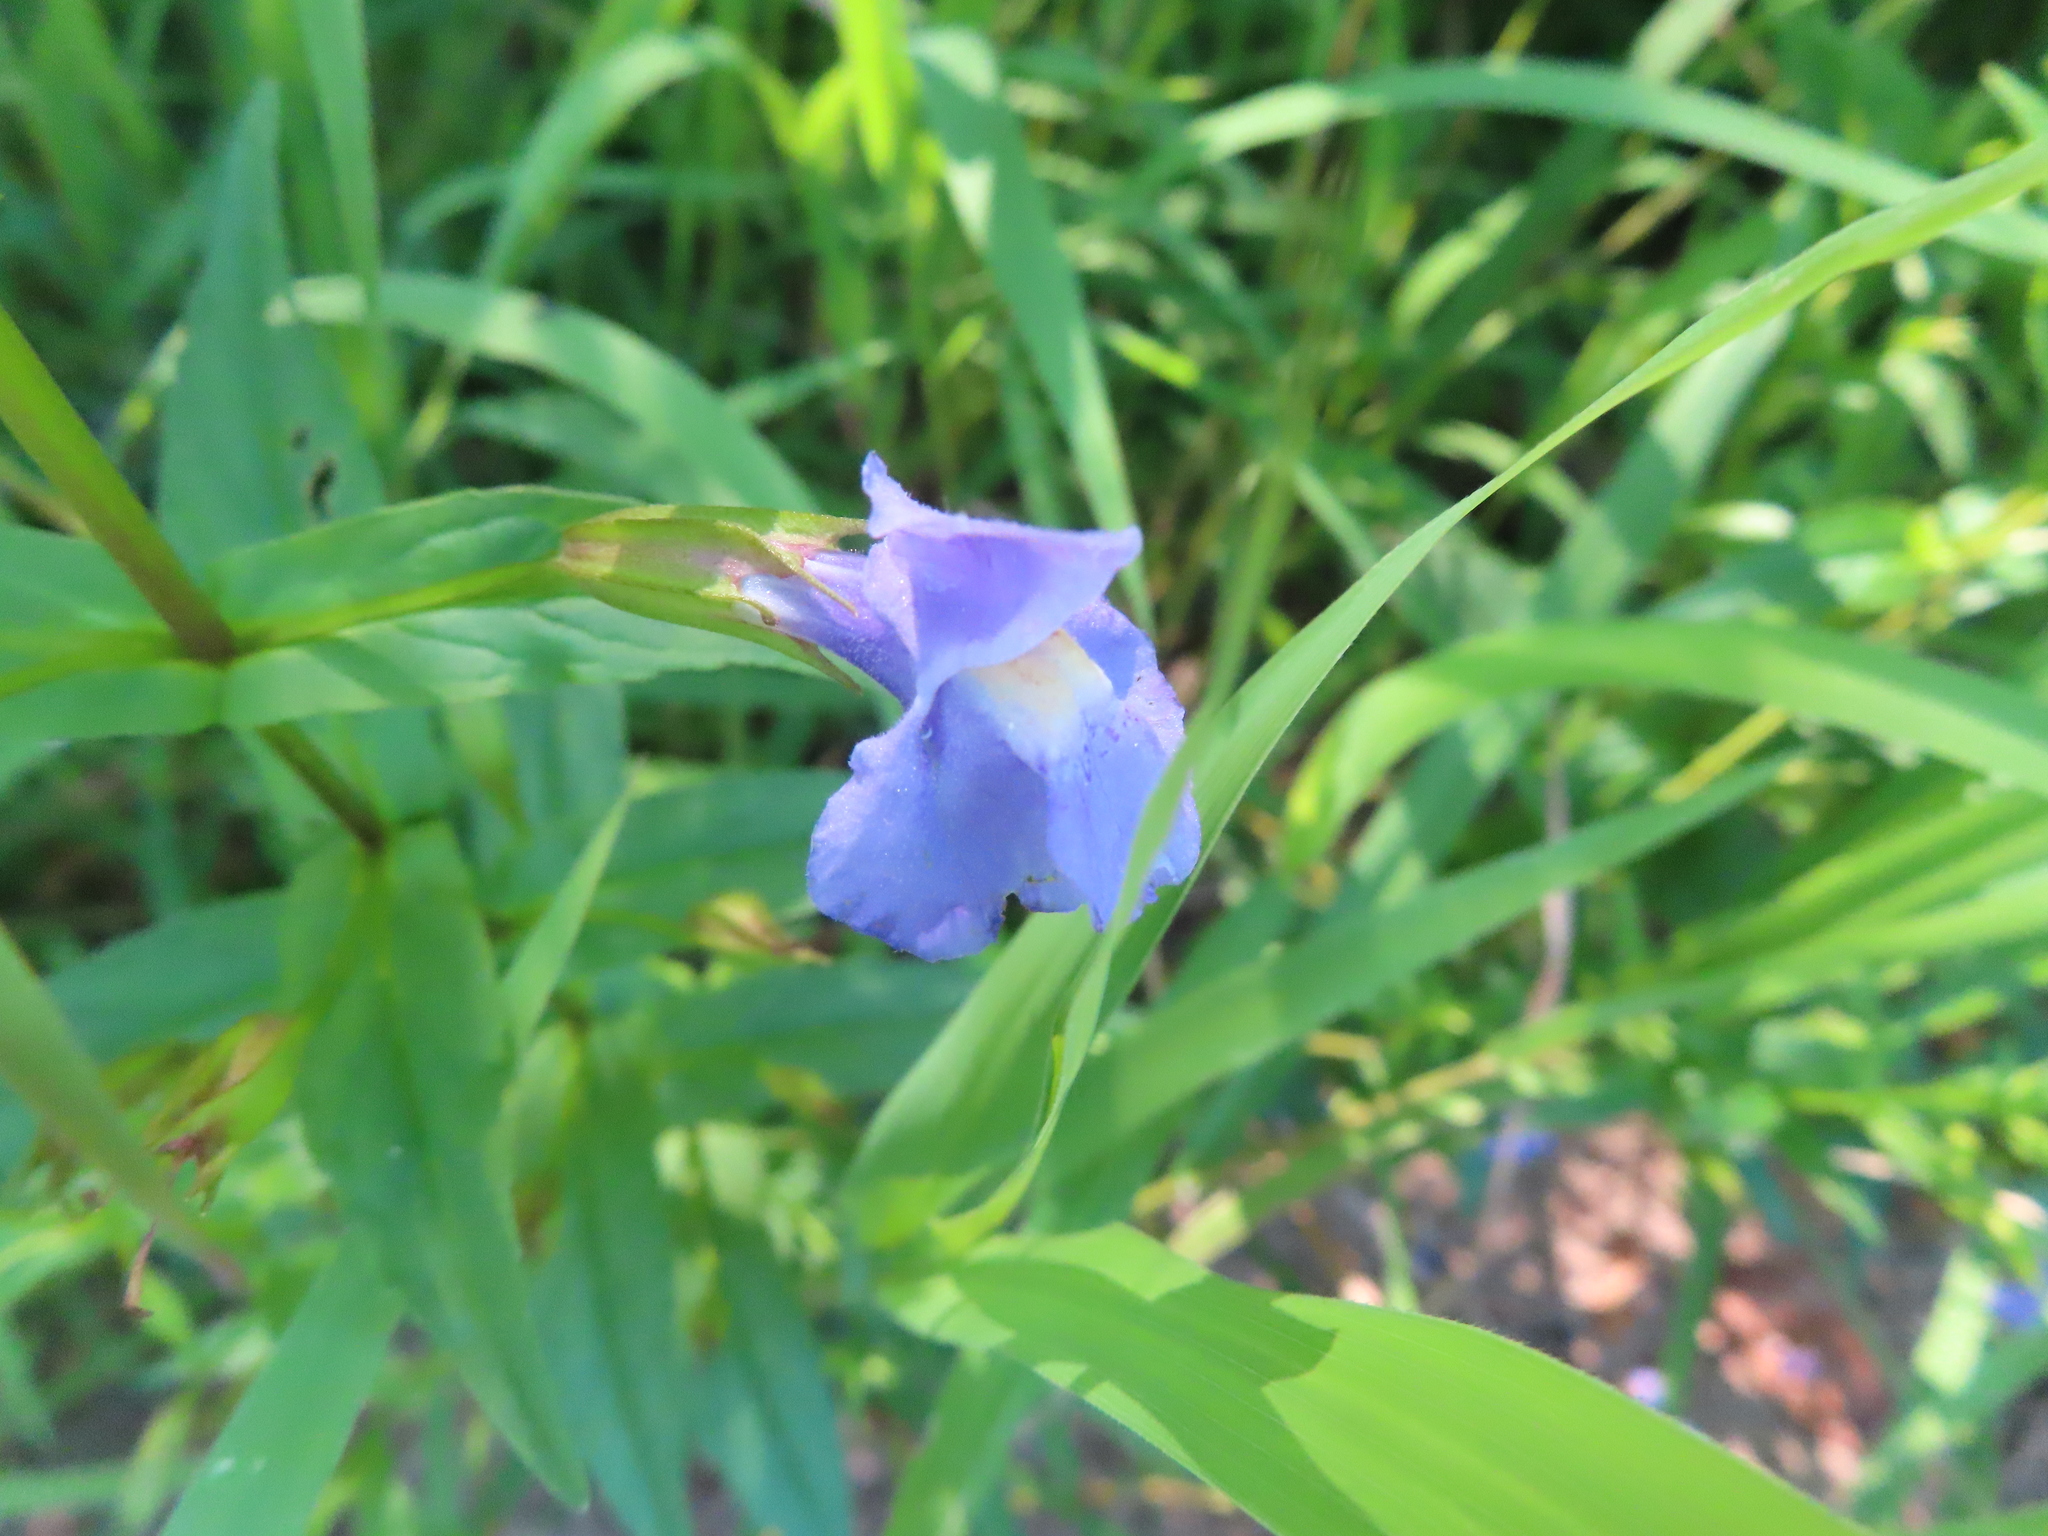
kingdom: Plantae
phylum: Tracheophyta
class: Magnoliopsida
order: Lamiales
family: Phrymaceae
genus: Mimulus
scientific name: Mimulus ringens
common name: Allegheny monkeyflower
